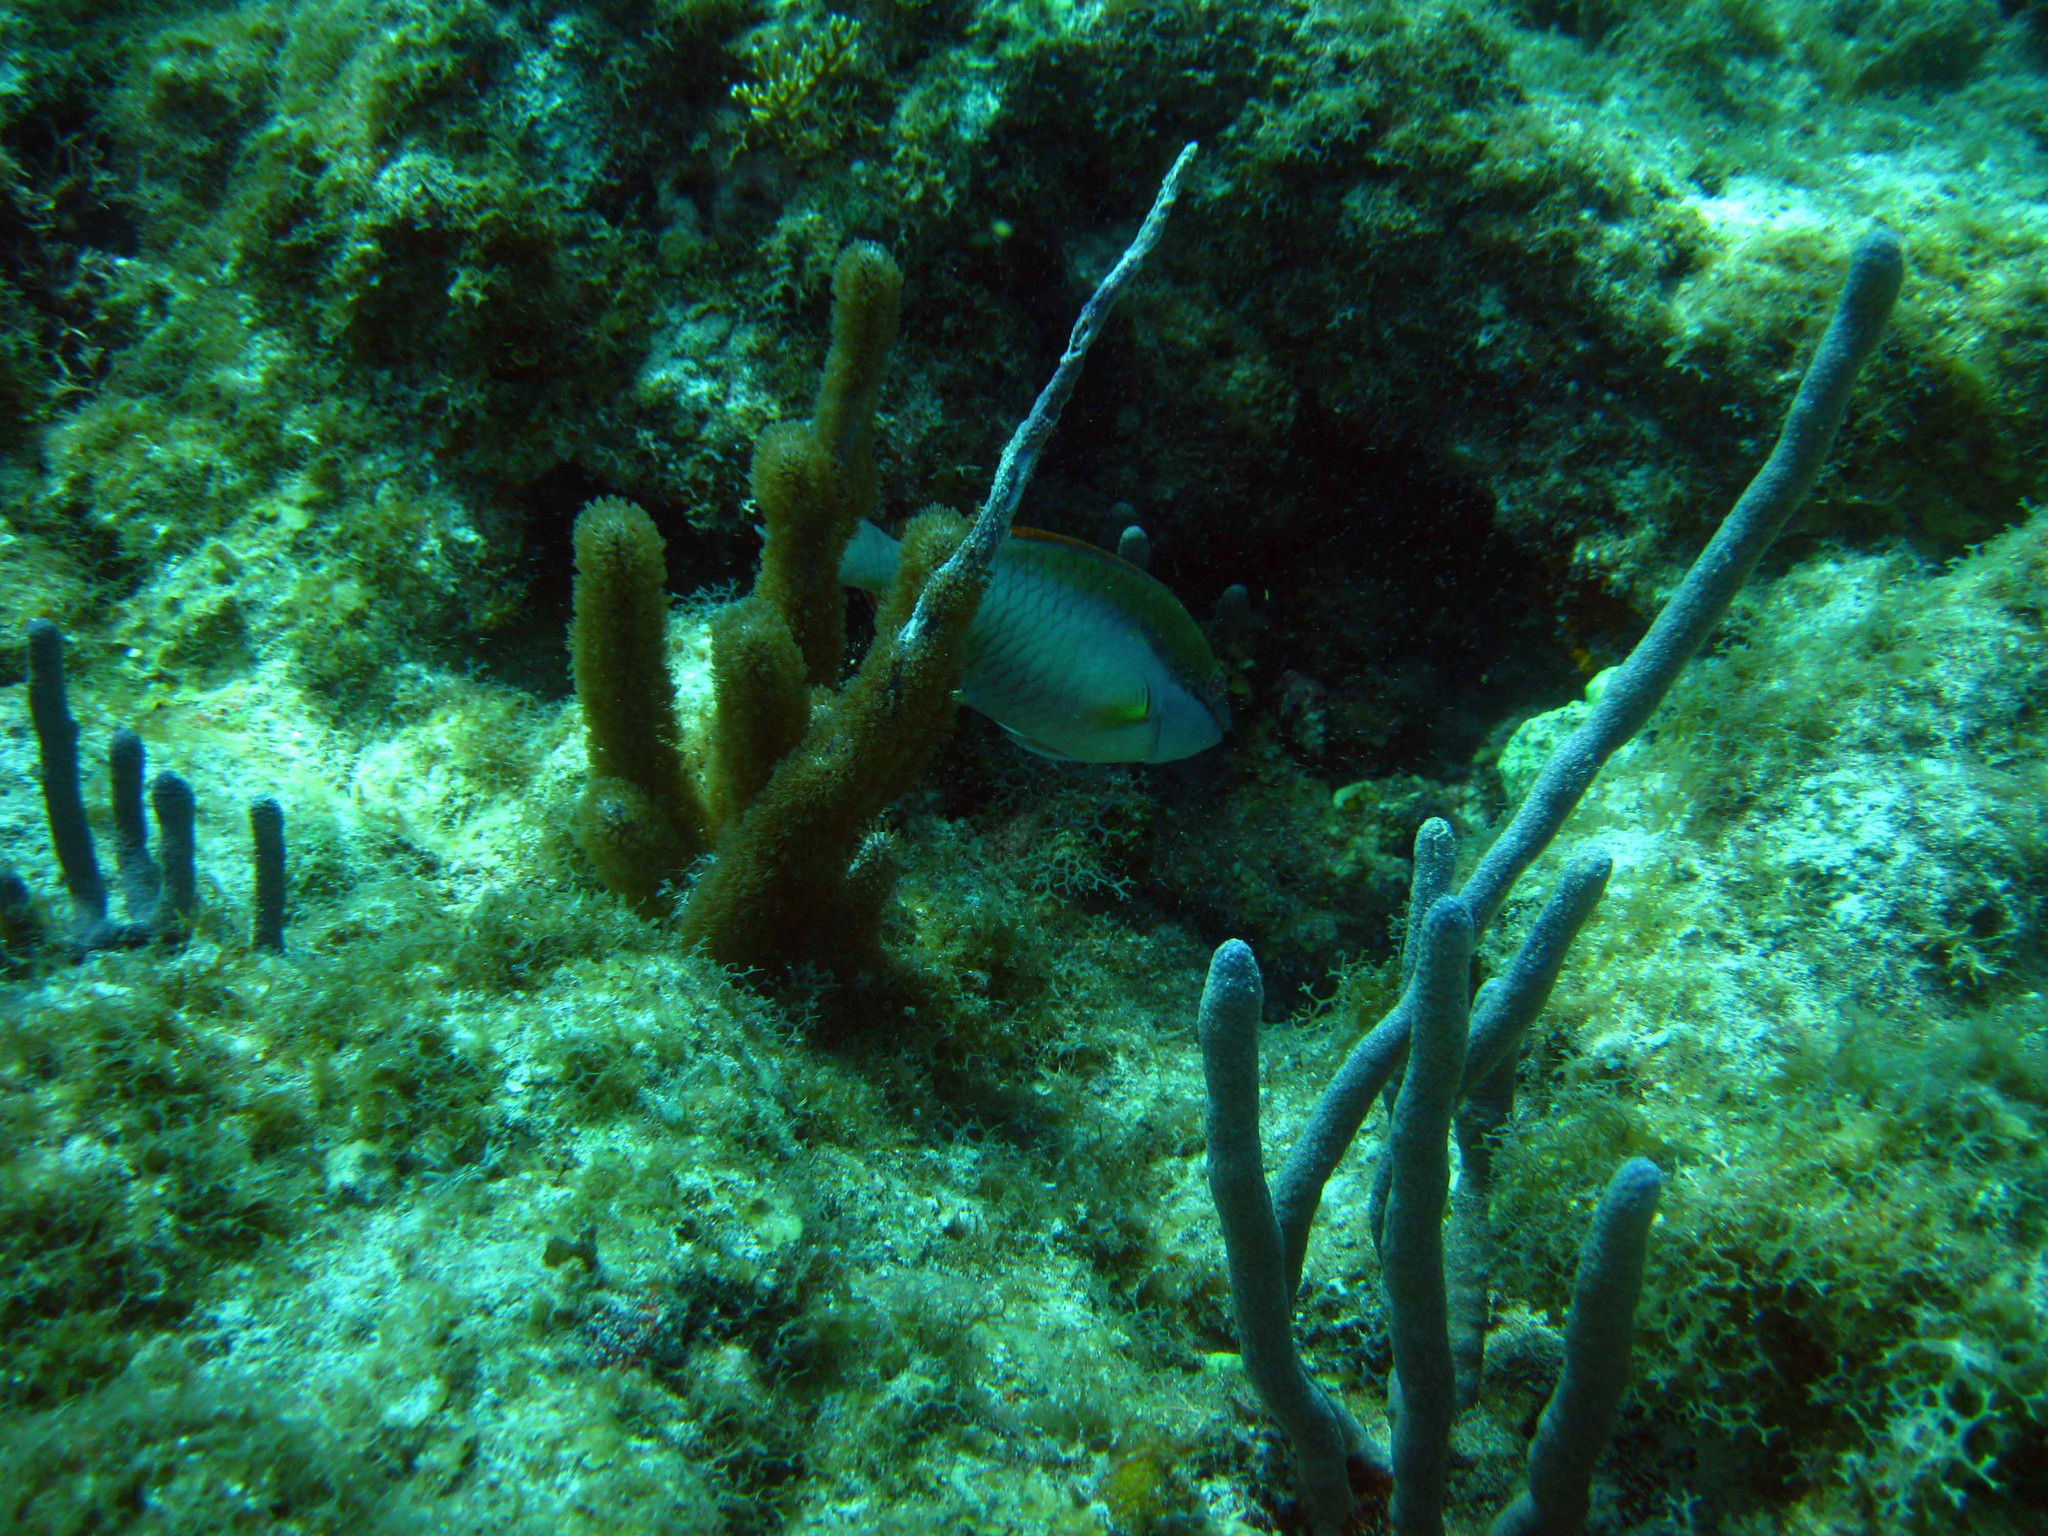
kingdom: Animalia
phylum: Chordata
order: Perciformes
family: Scaridae
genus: Sparisoma
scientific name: Sparisoma aurofrenatum
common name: Redband parrotfish
